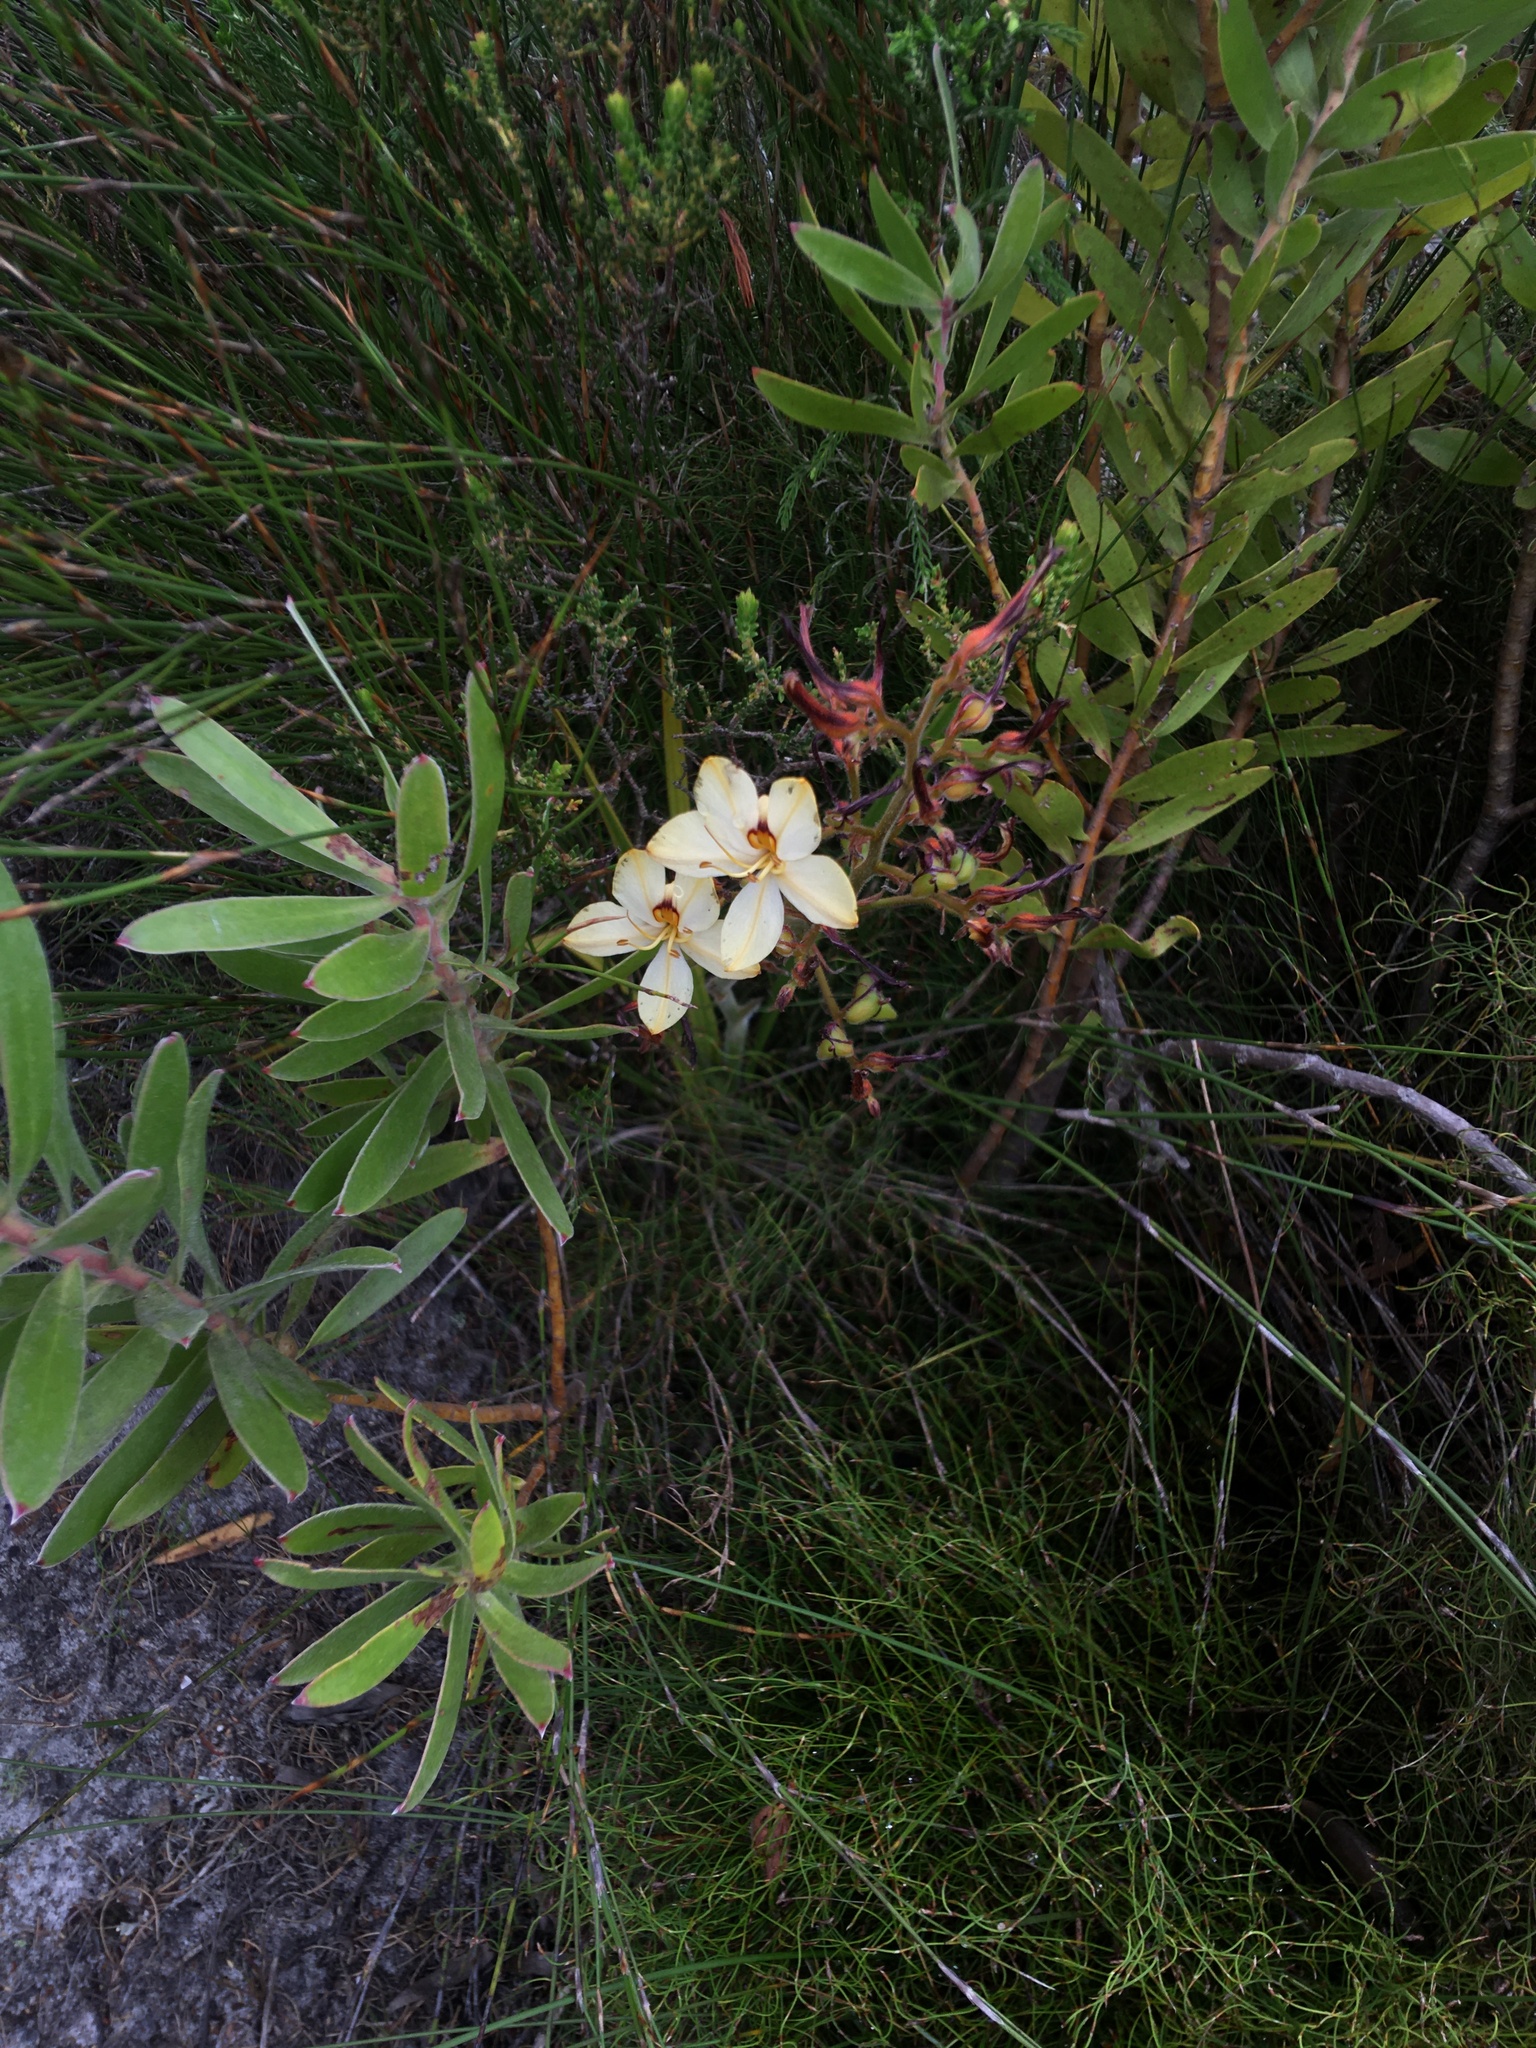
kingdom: Plantae
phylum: Tracheophyta
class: Liliopsida
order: Commelinales
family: Haemodoraceae
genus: Wachendorfia
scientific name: Wachendorfia paniculata
